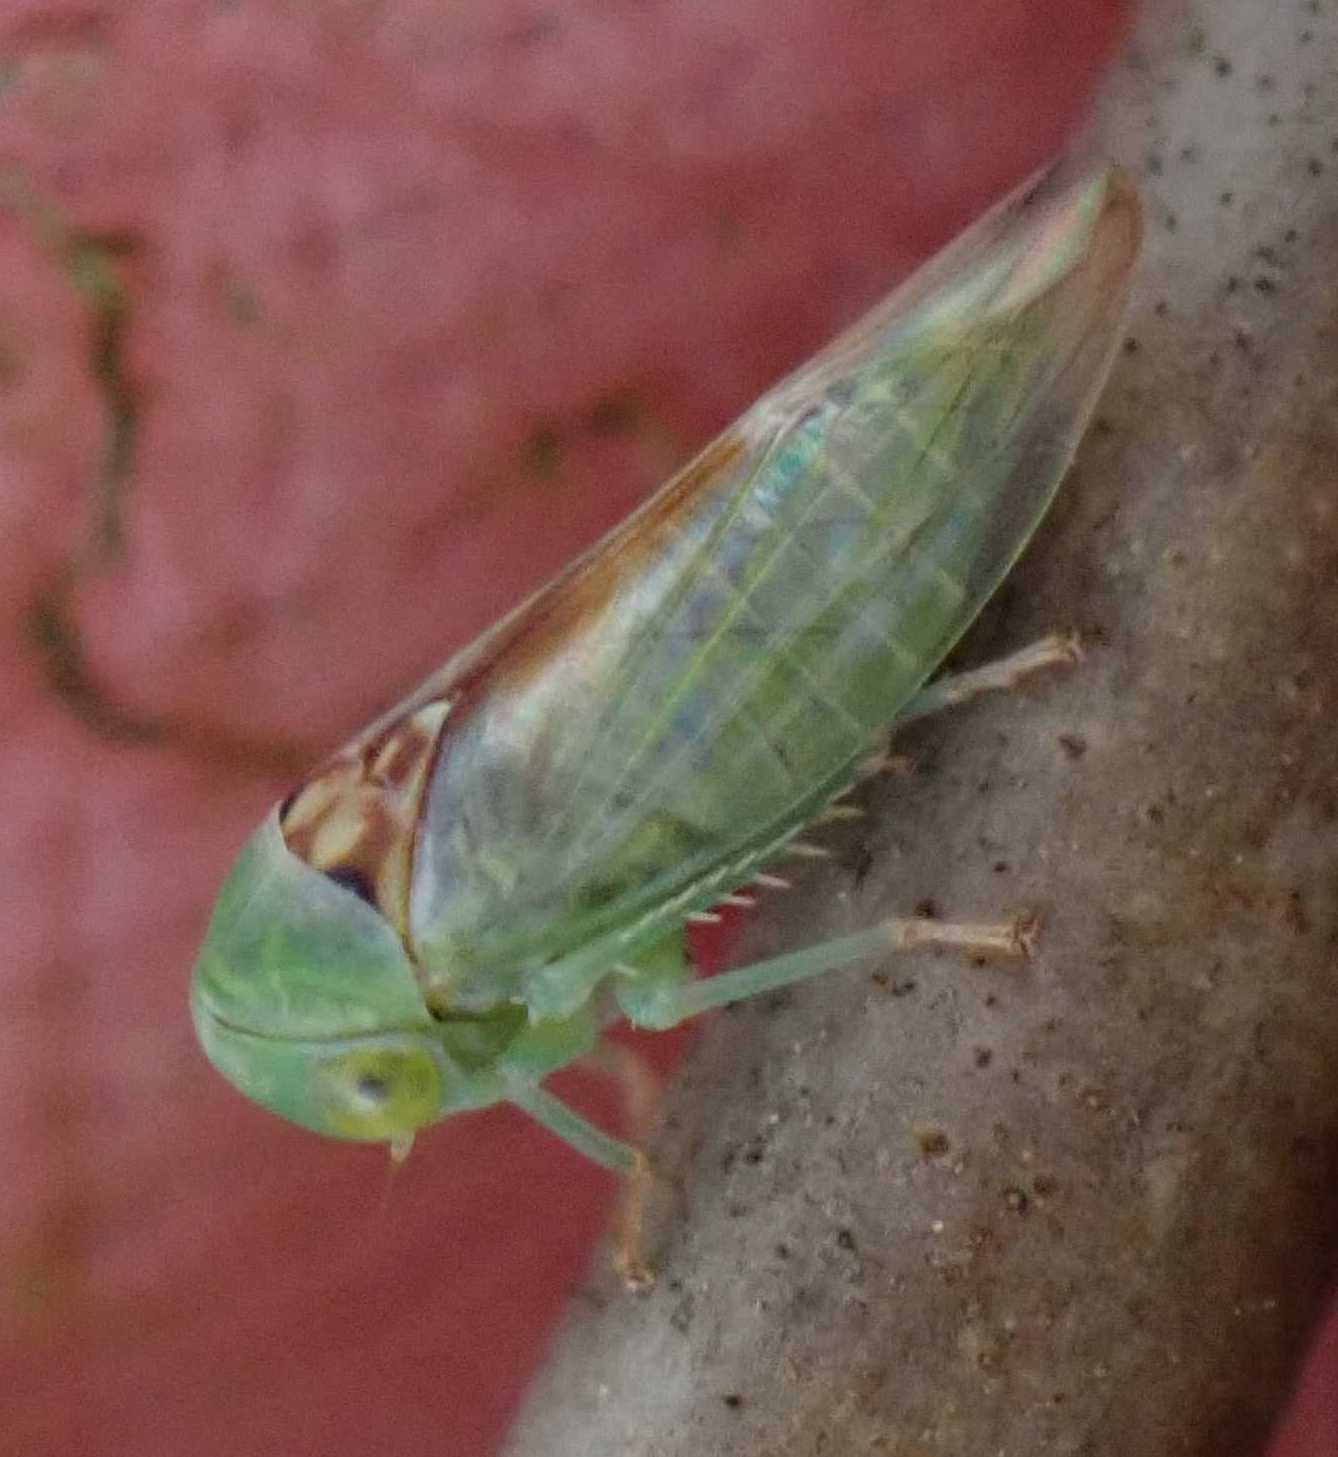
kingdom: Animalia
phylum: Arthropoda
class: Insecta
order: Hemiptera
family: Cicadellidae
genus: Viridicerus
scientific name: Viridicerus ustulatus
